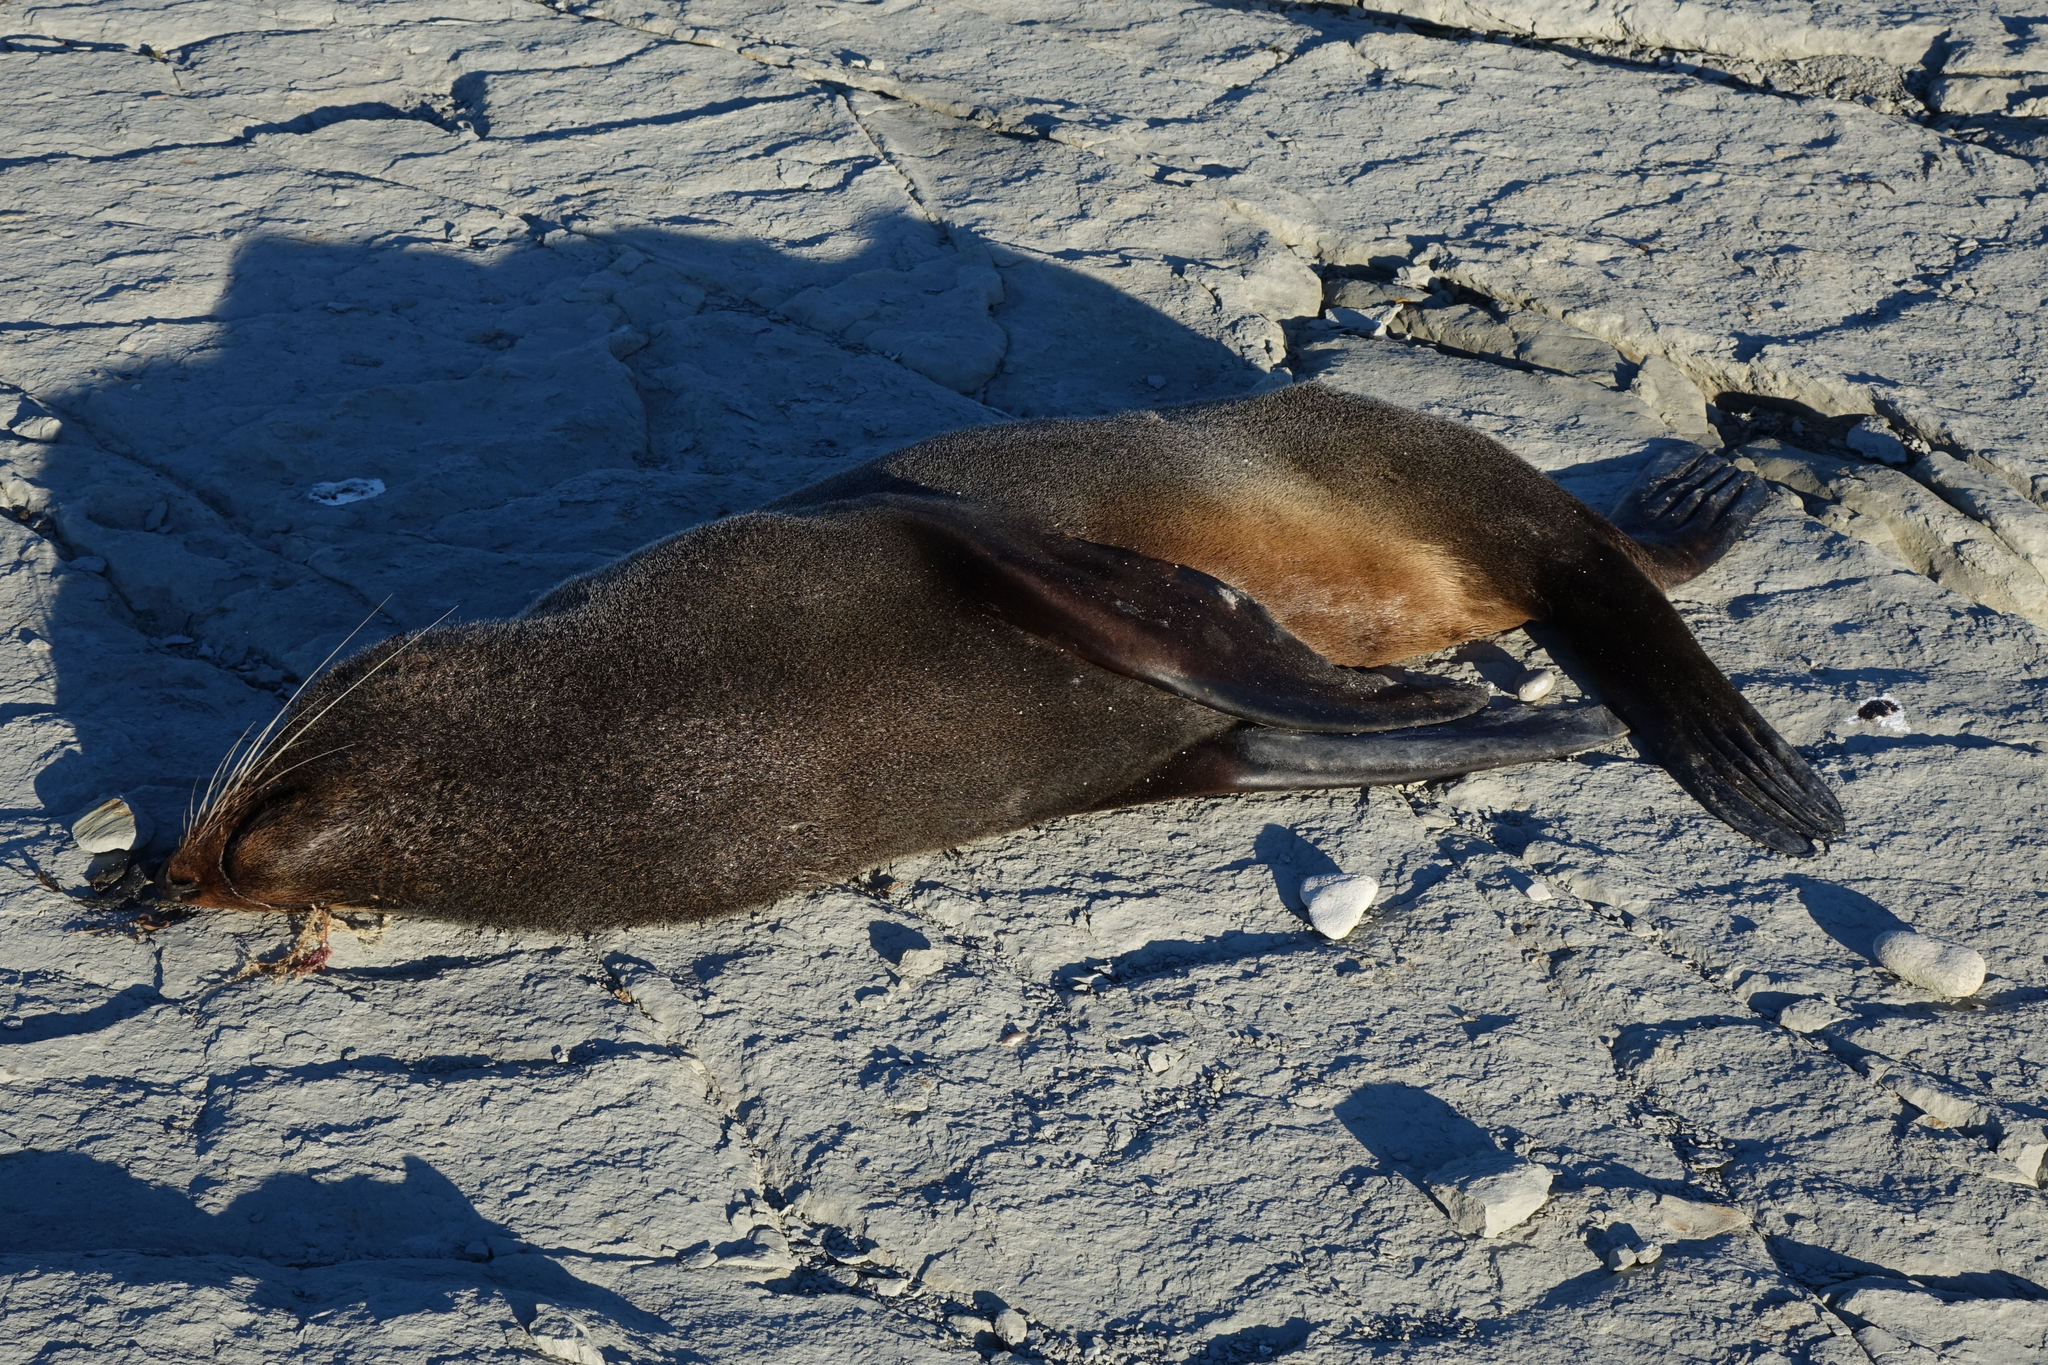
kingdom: Animalia
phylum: Chordata
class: Mammalia
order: Carnivora
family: Otariidae
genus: Arctocephalus
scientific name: Arctocephalus forsteri
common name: New zealand fur seal
